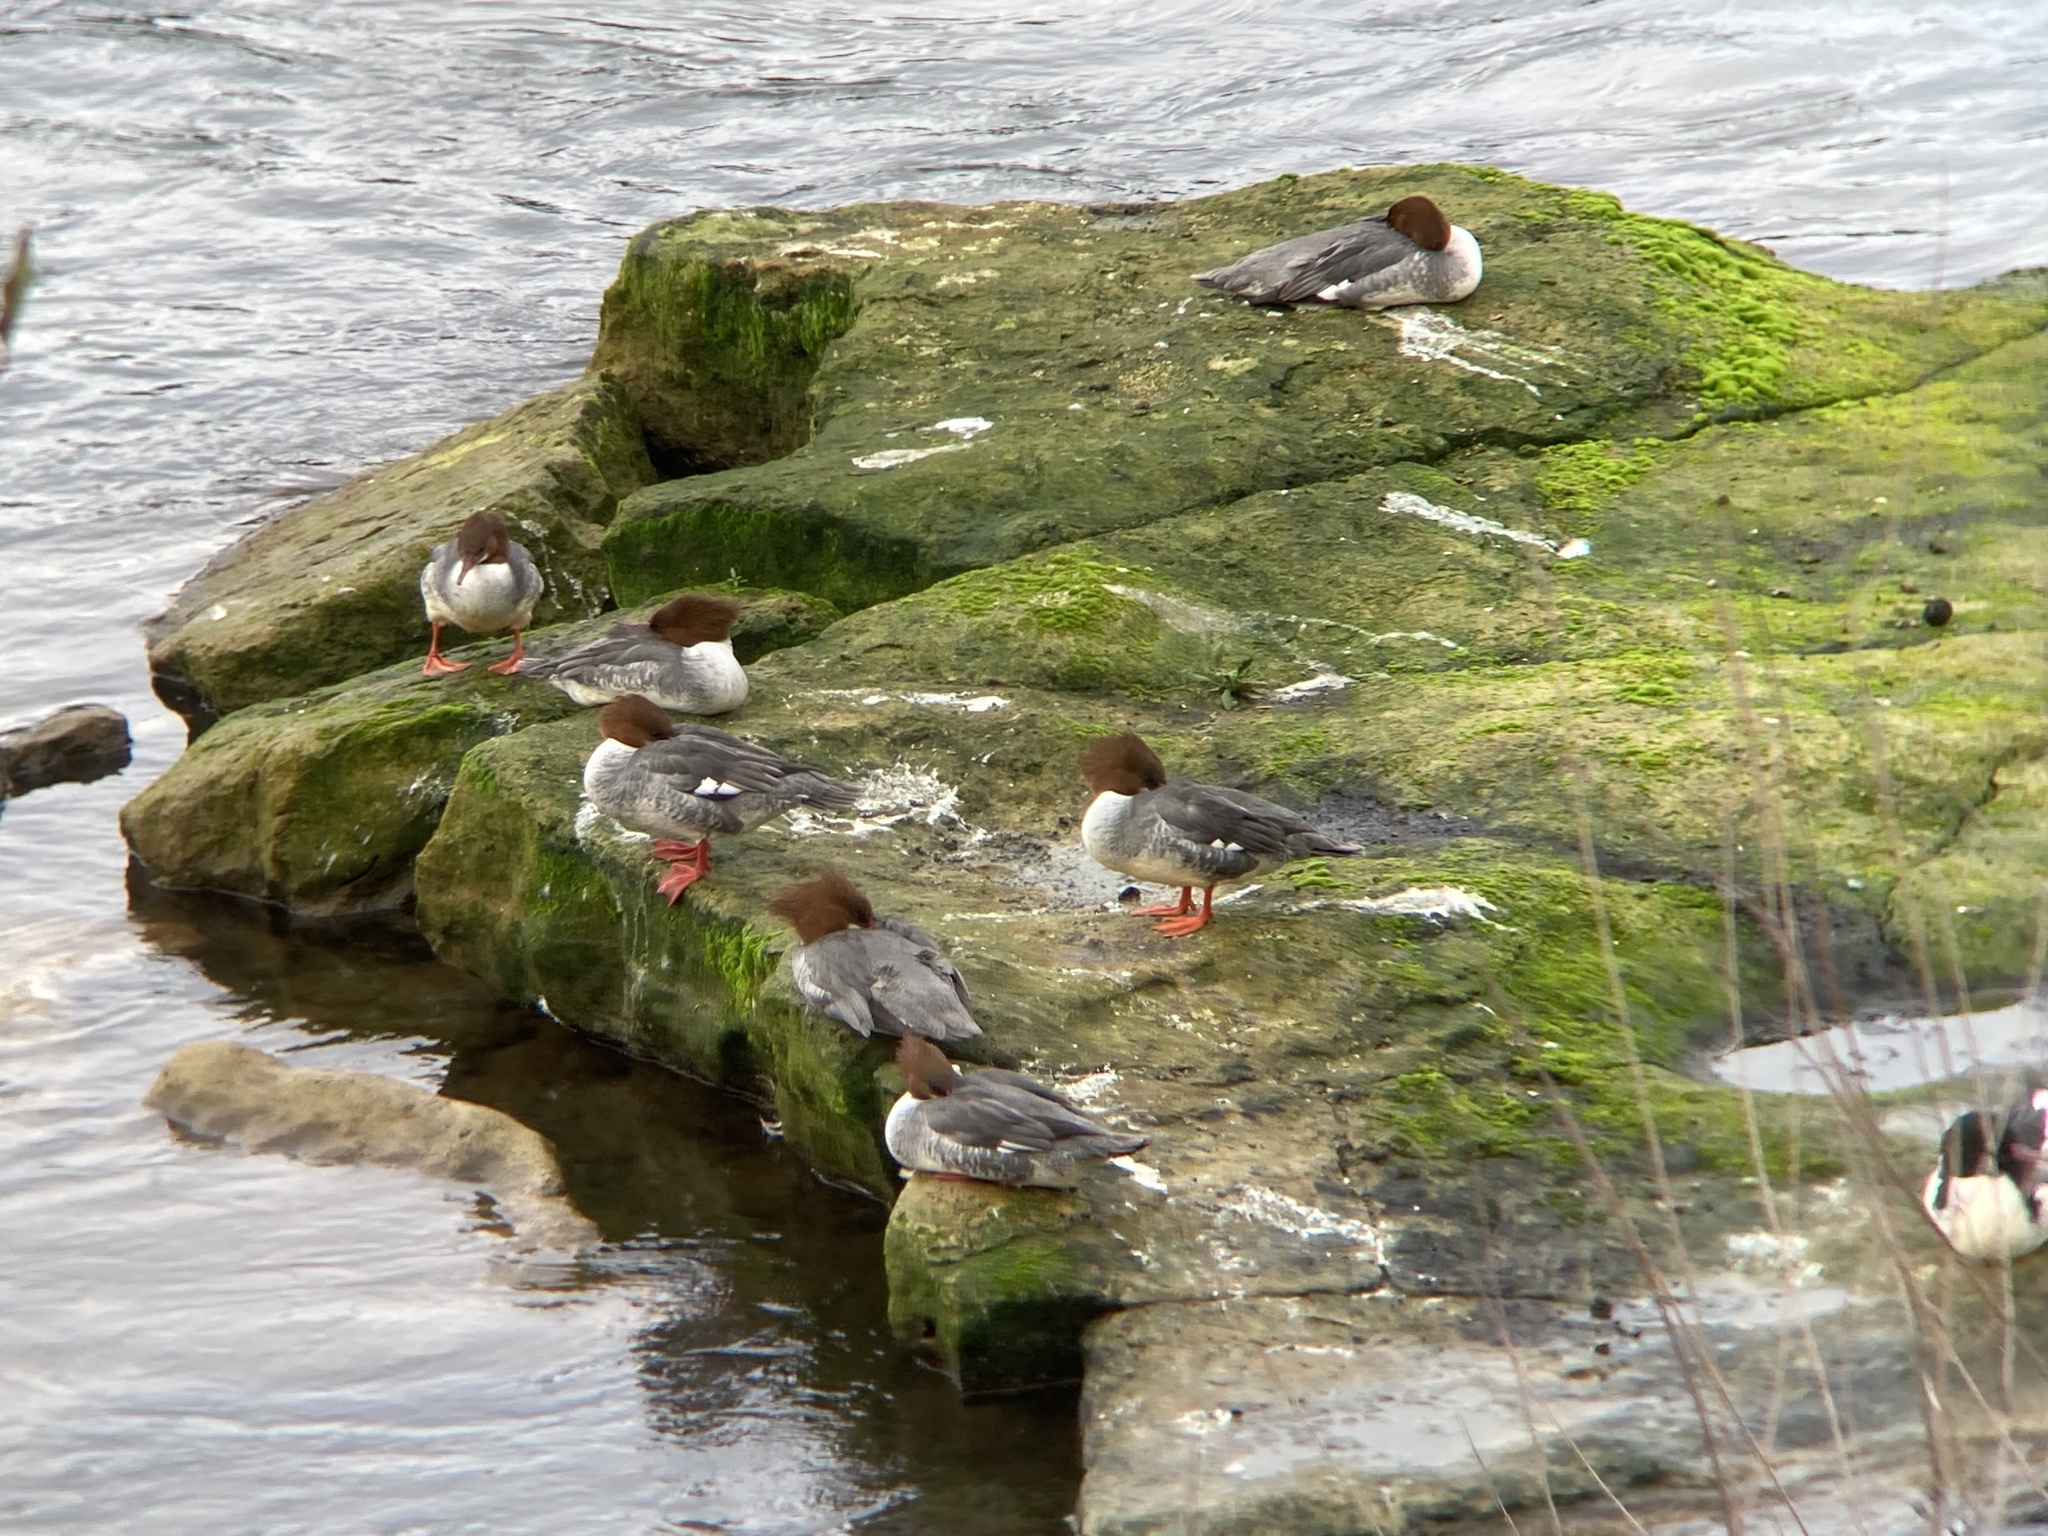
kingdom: Animalia
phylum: Chordata
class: Aves
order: Anseriformes
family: Anatidae
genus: Mergus
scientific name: Mergus merganser
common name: Common merganser
